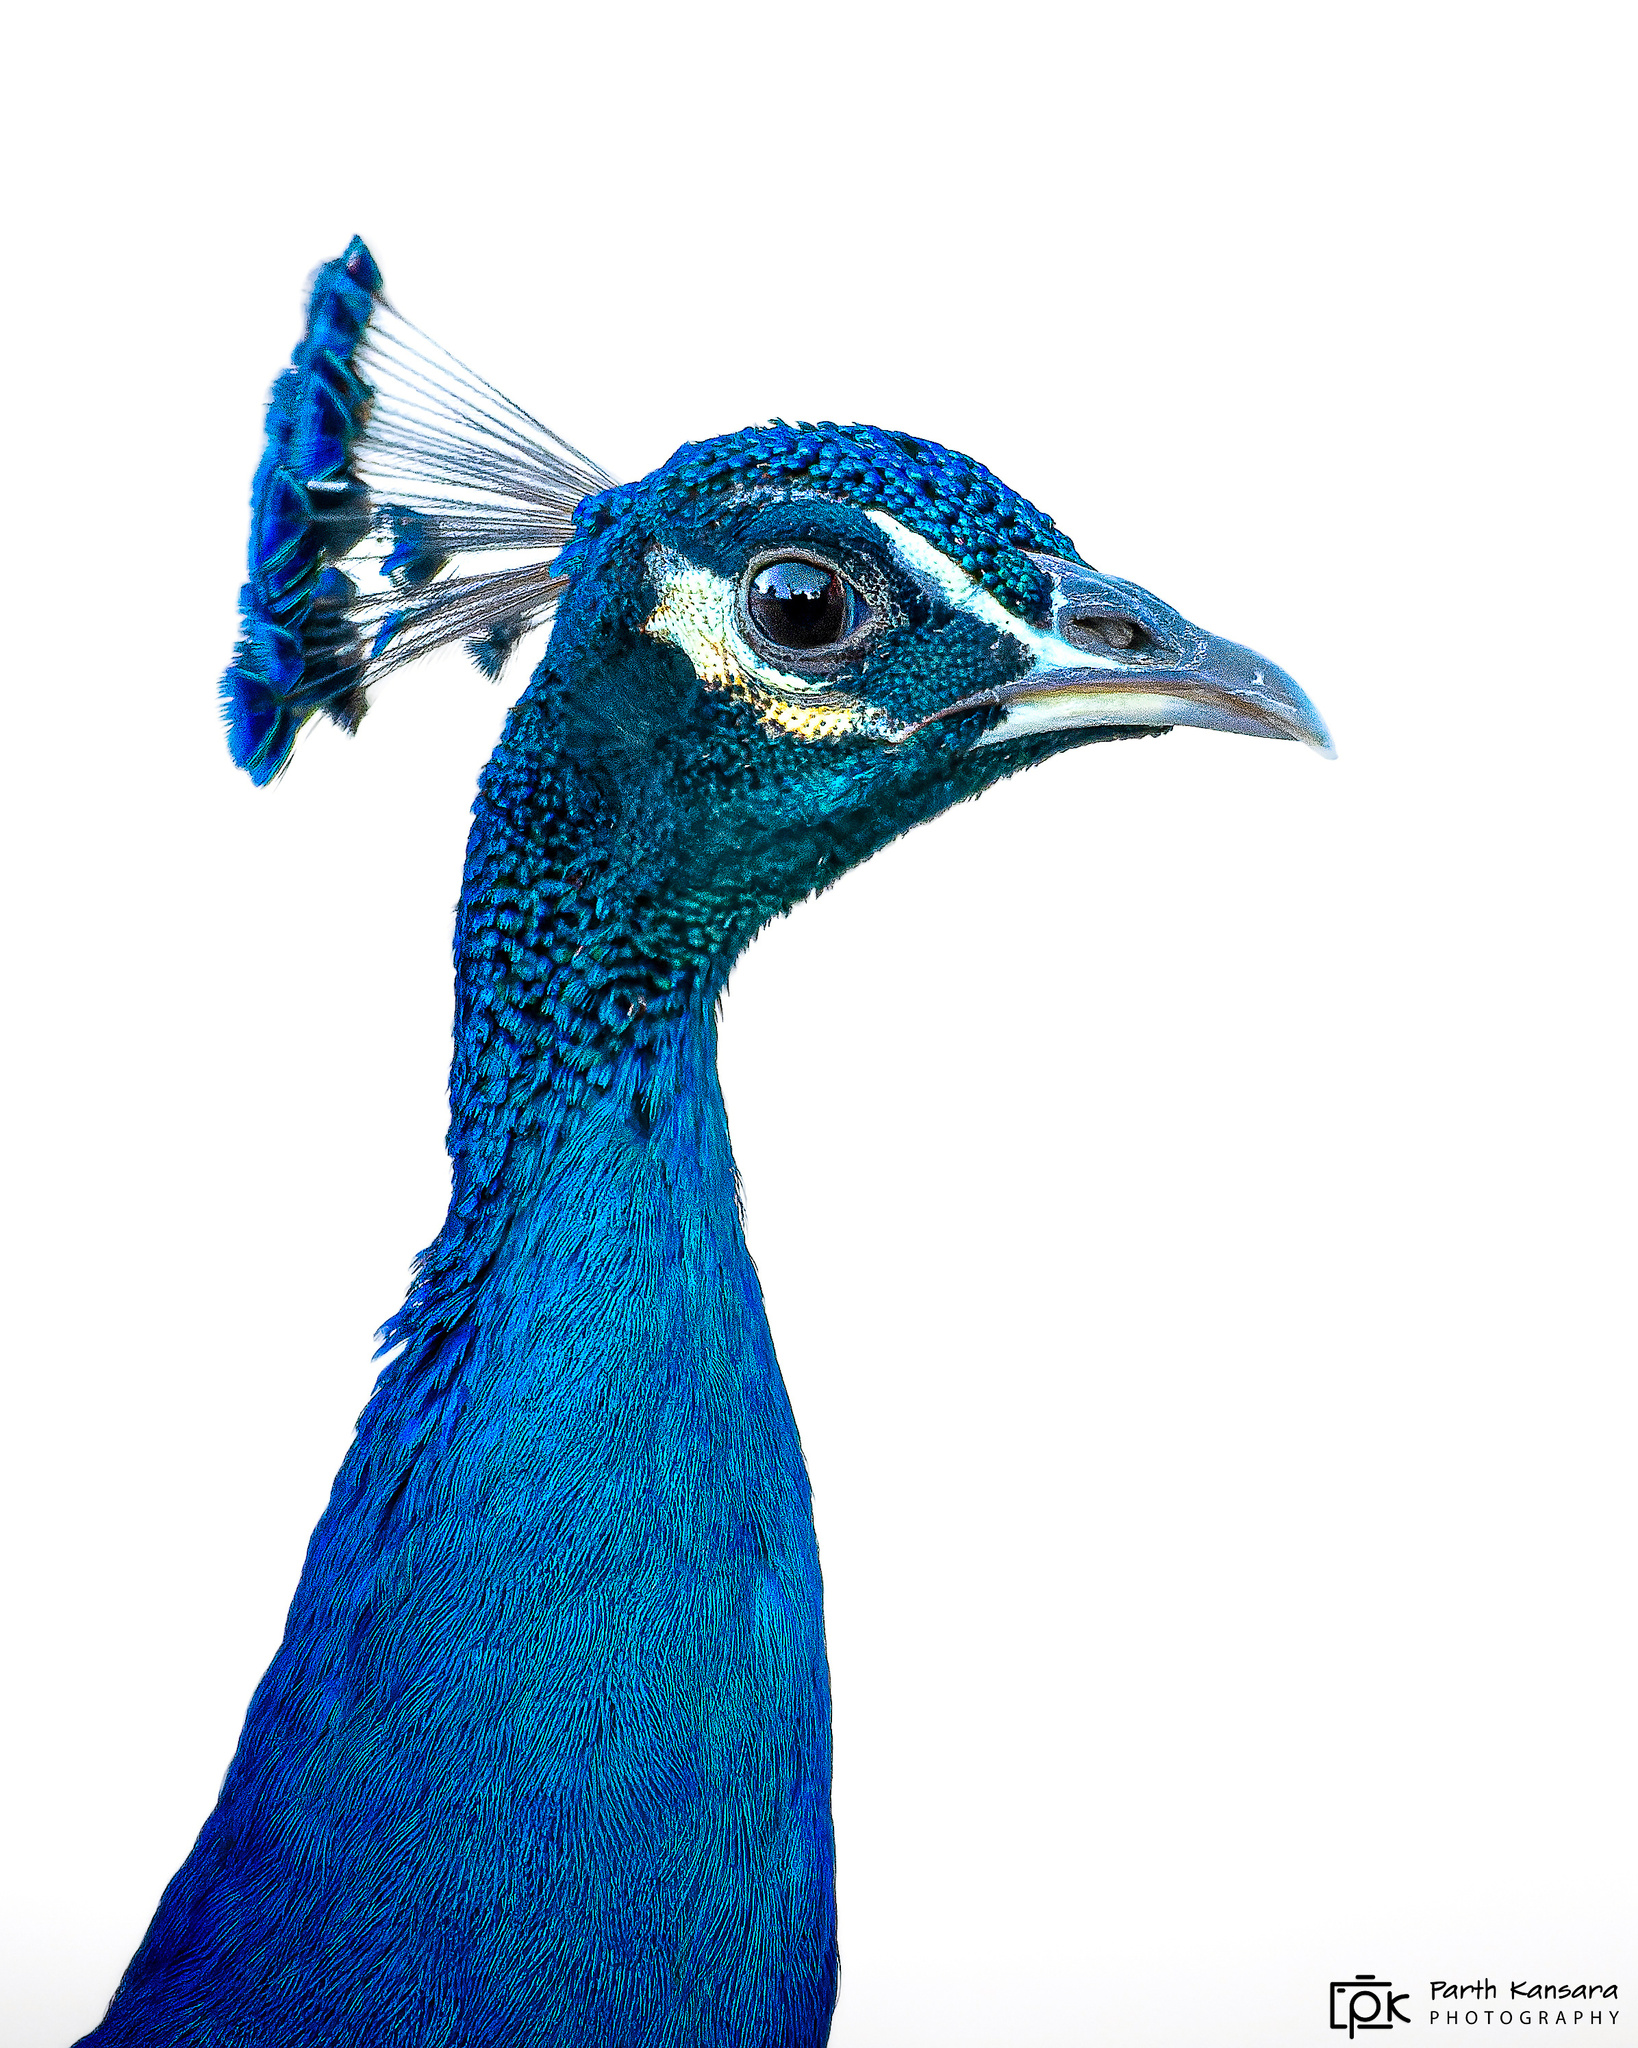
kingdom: Animalia
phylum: Chordata
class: Aves
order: Galliformes
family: Phasianidae
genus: Pavo
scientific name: Pavo cristatus
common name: Indian peafowl
